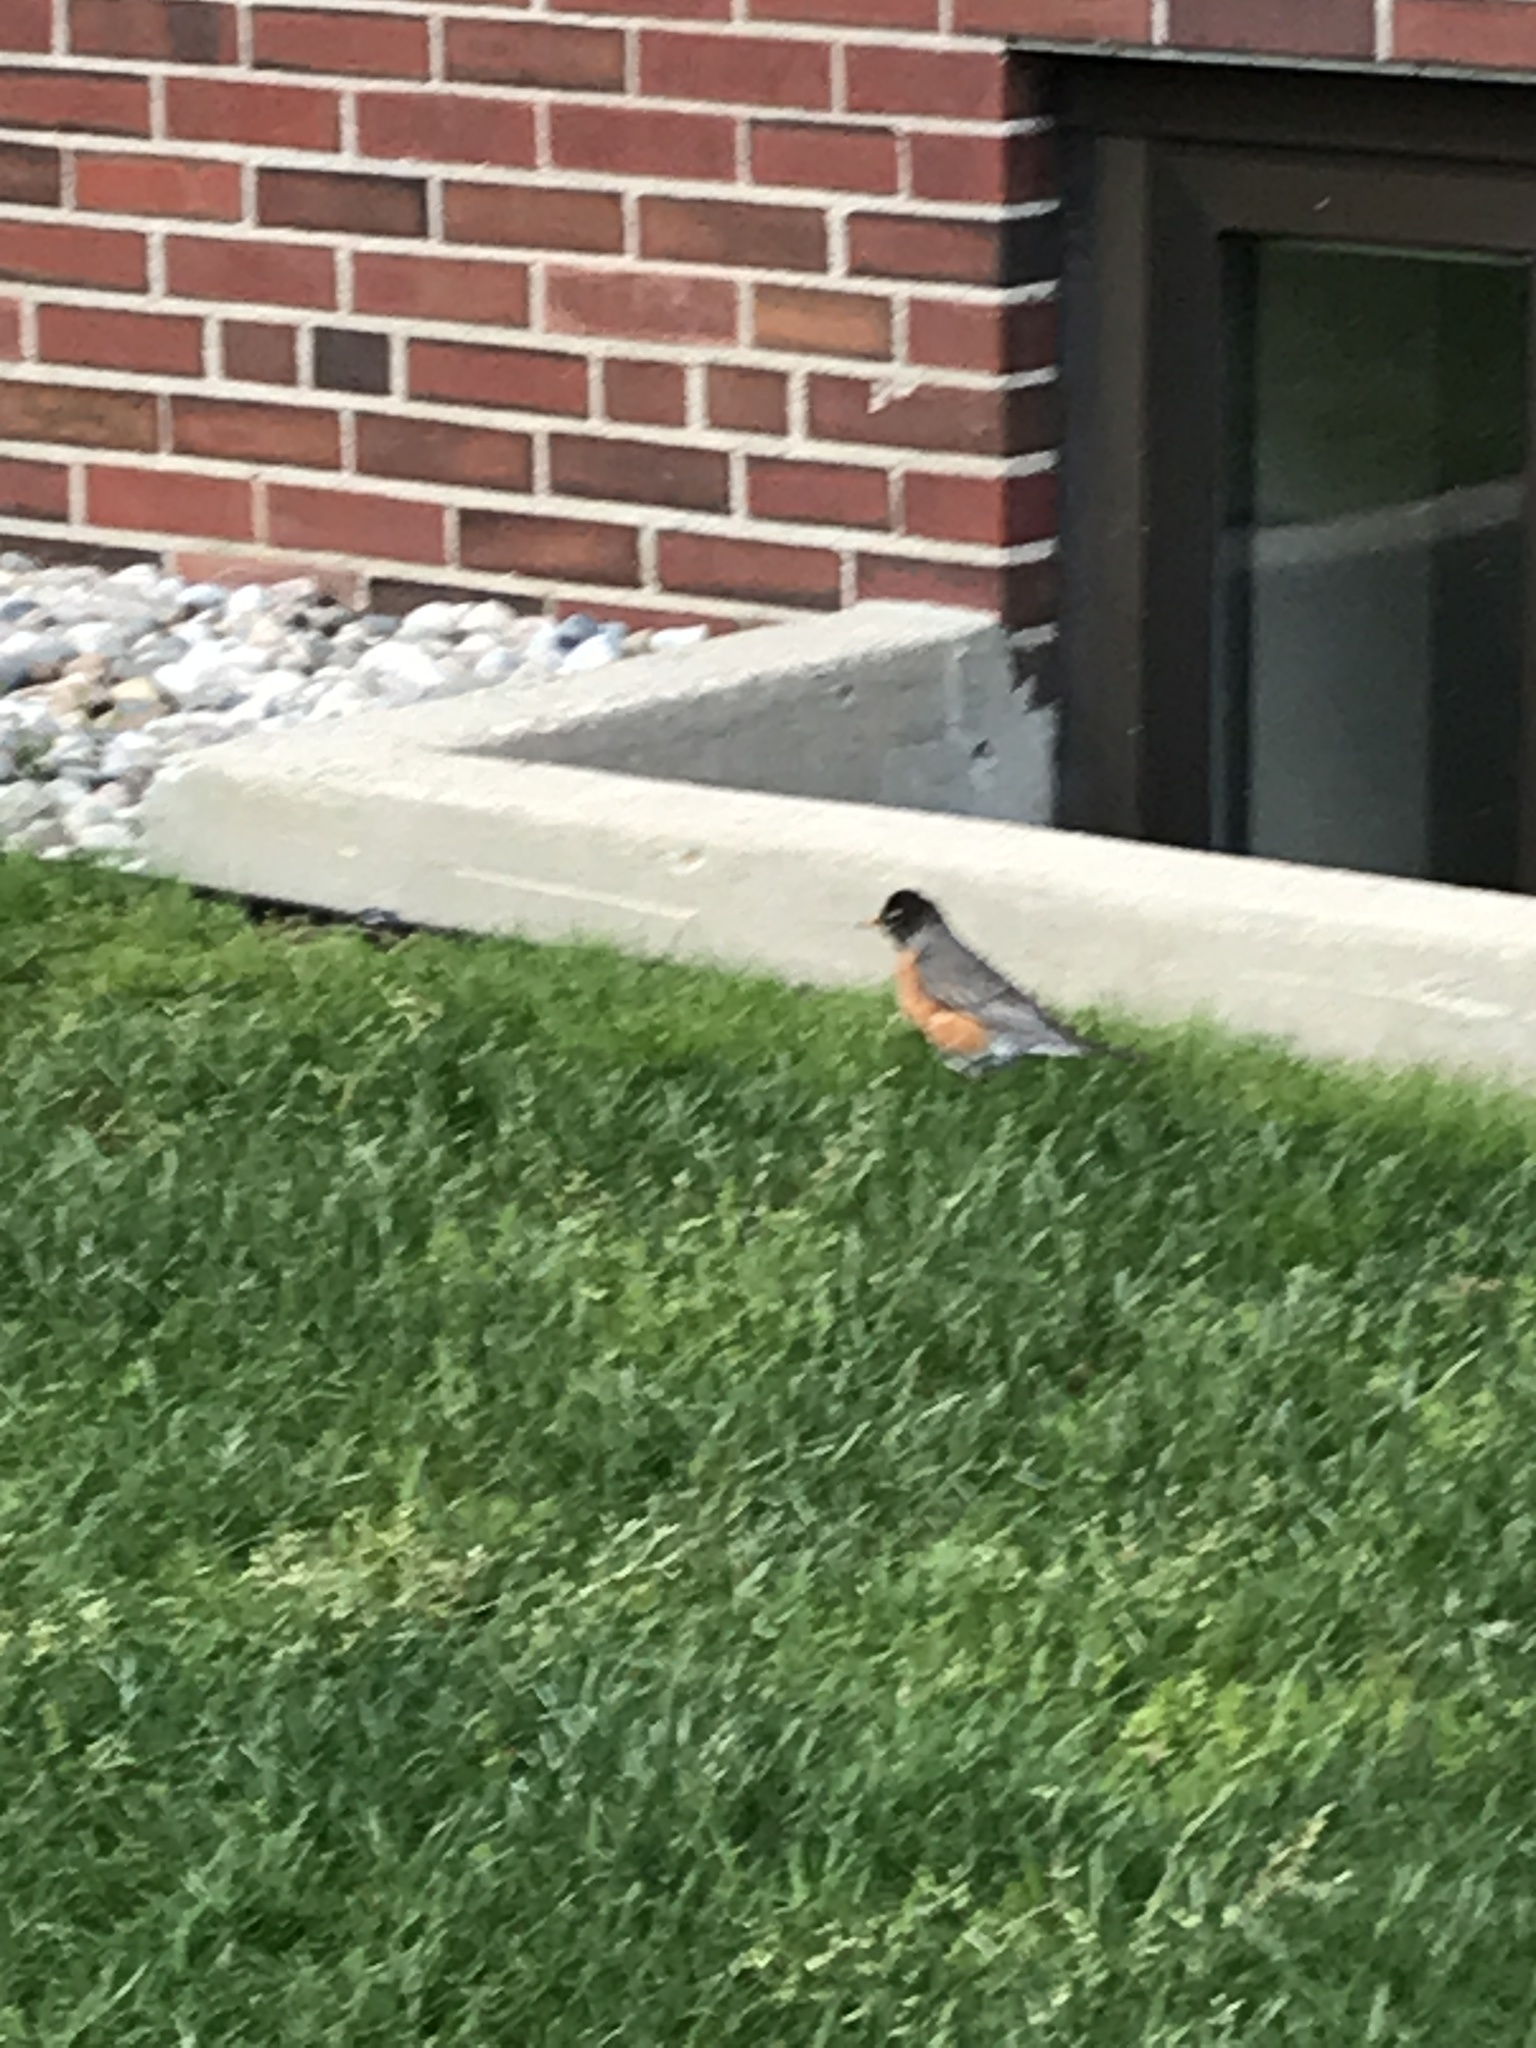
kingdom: Animalia
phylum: Chordata
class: Aves
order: Passeriformes
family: Turdidae
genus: Turdus
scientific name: Turdus migratorius
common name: American robin
